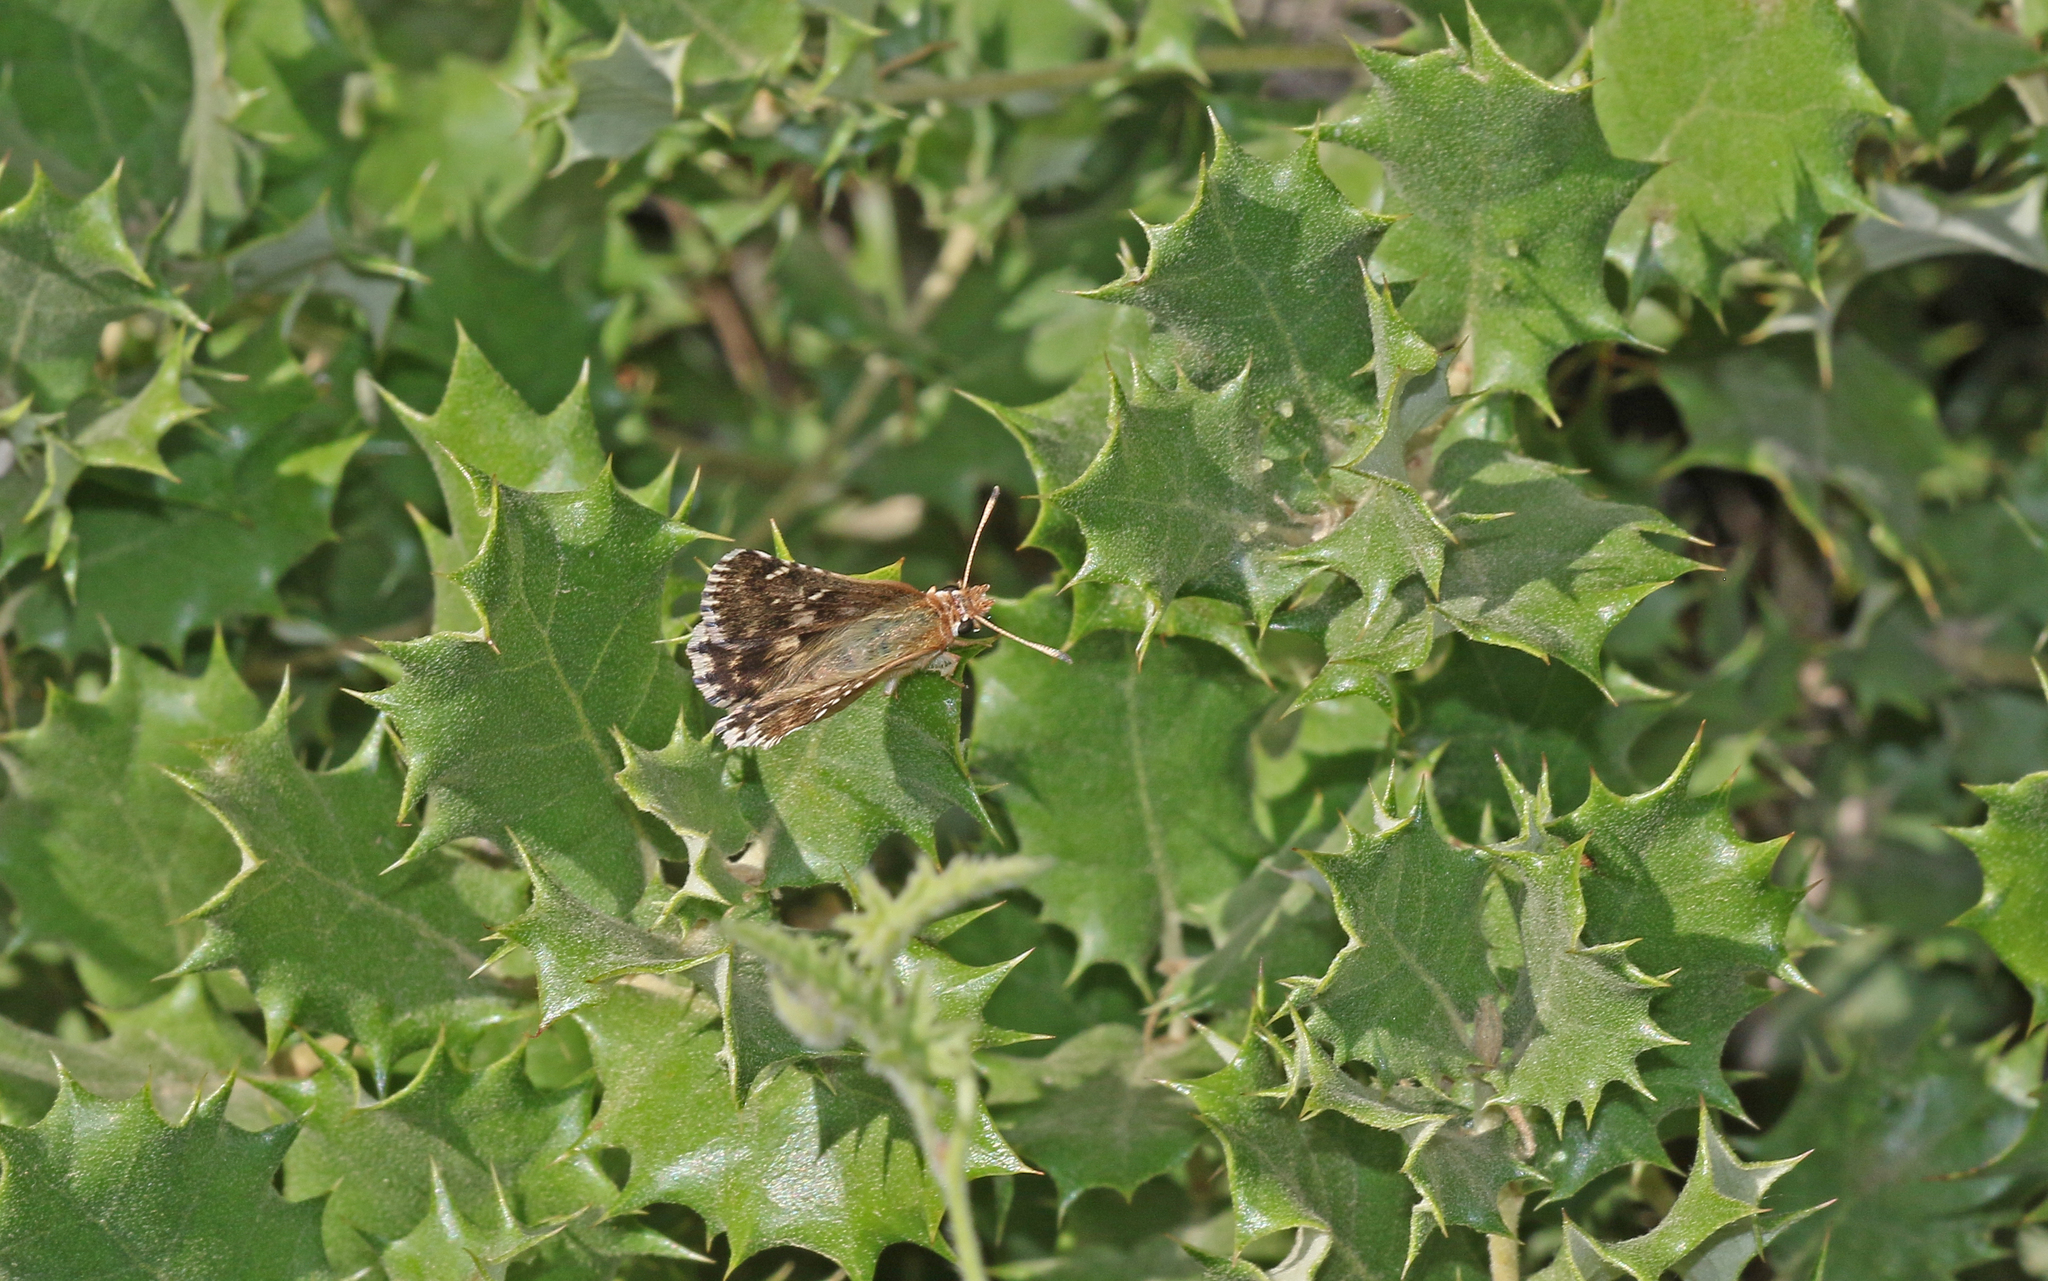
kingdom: Animalia
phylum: Arthropoda
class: Insecta
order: Lepidoptera
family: Hesperiidae
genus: Syrichtus
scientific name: Syrichtus Muschampia proto
